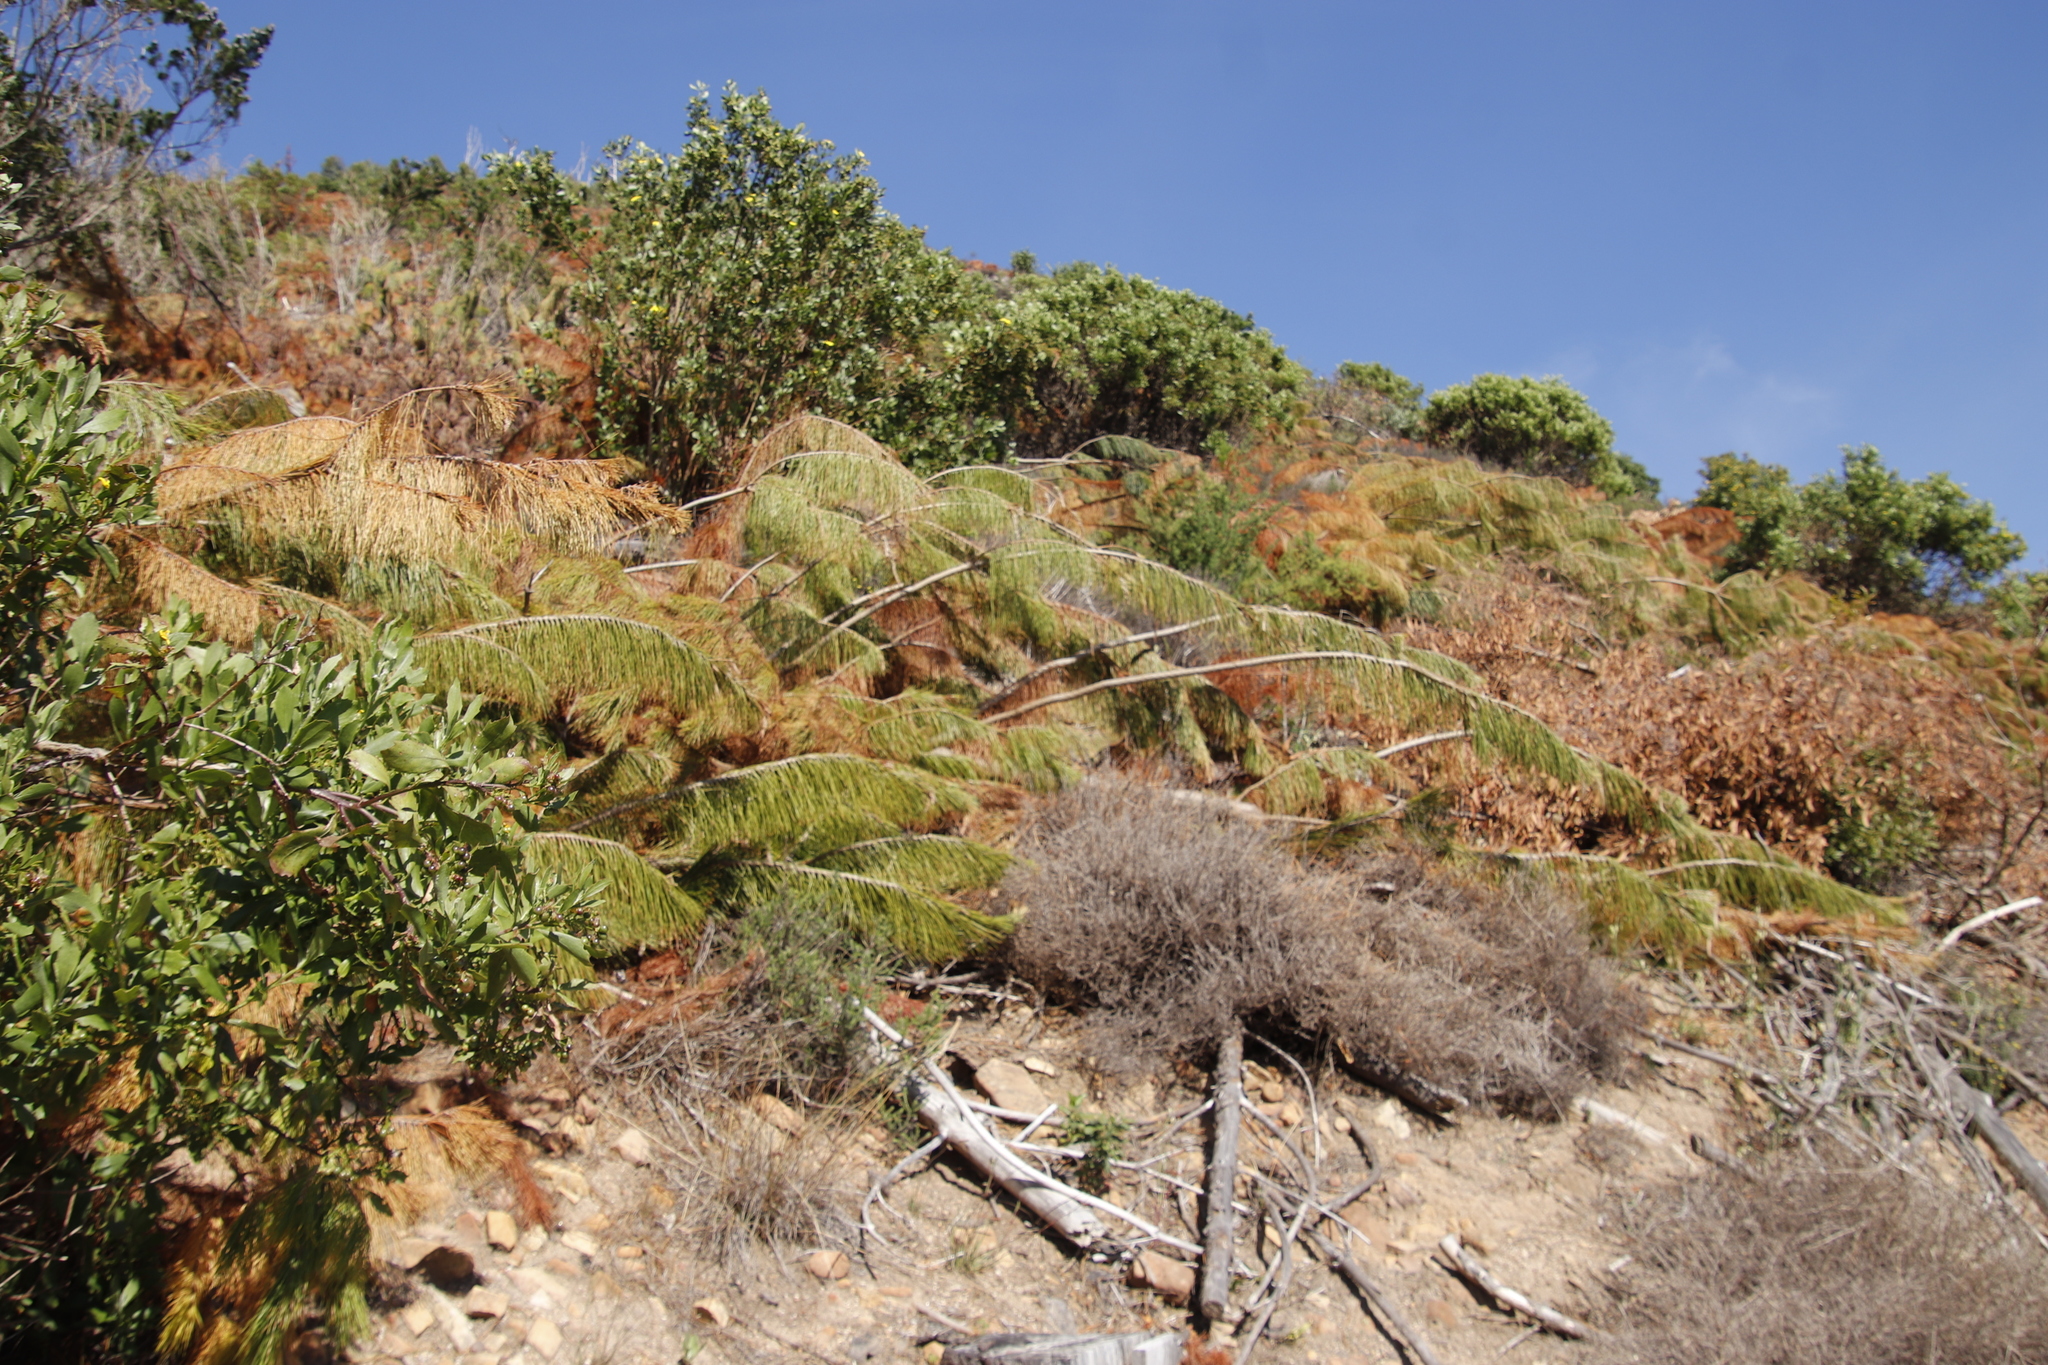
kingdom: Plantae
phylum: Tracheophyta
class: Pinopsida
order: Pinales
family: Pinaceae
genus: Pinus
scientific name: Pinus radiata
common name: Monterey pine
